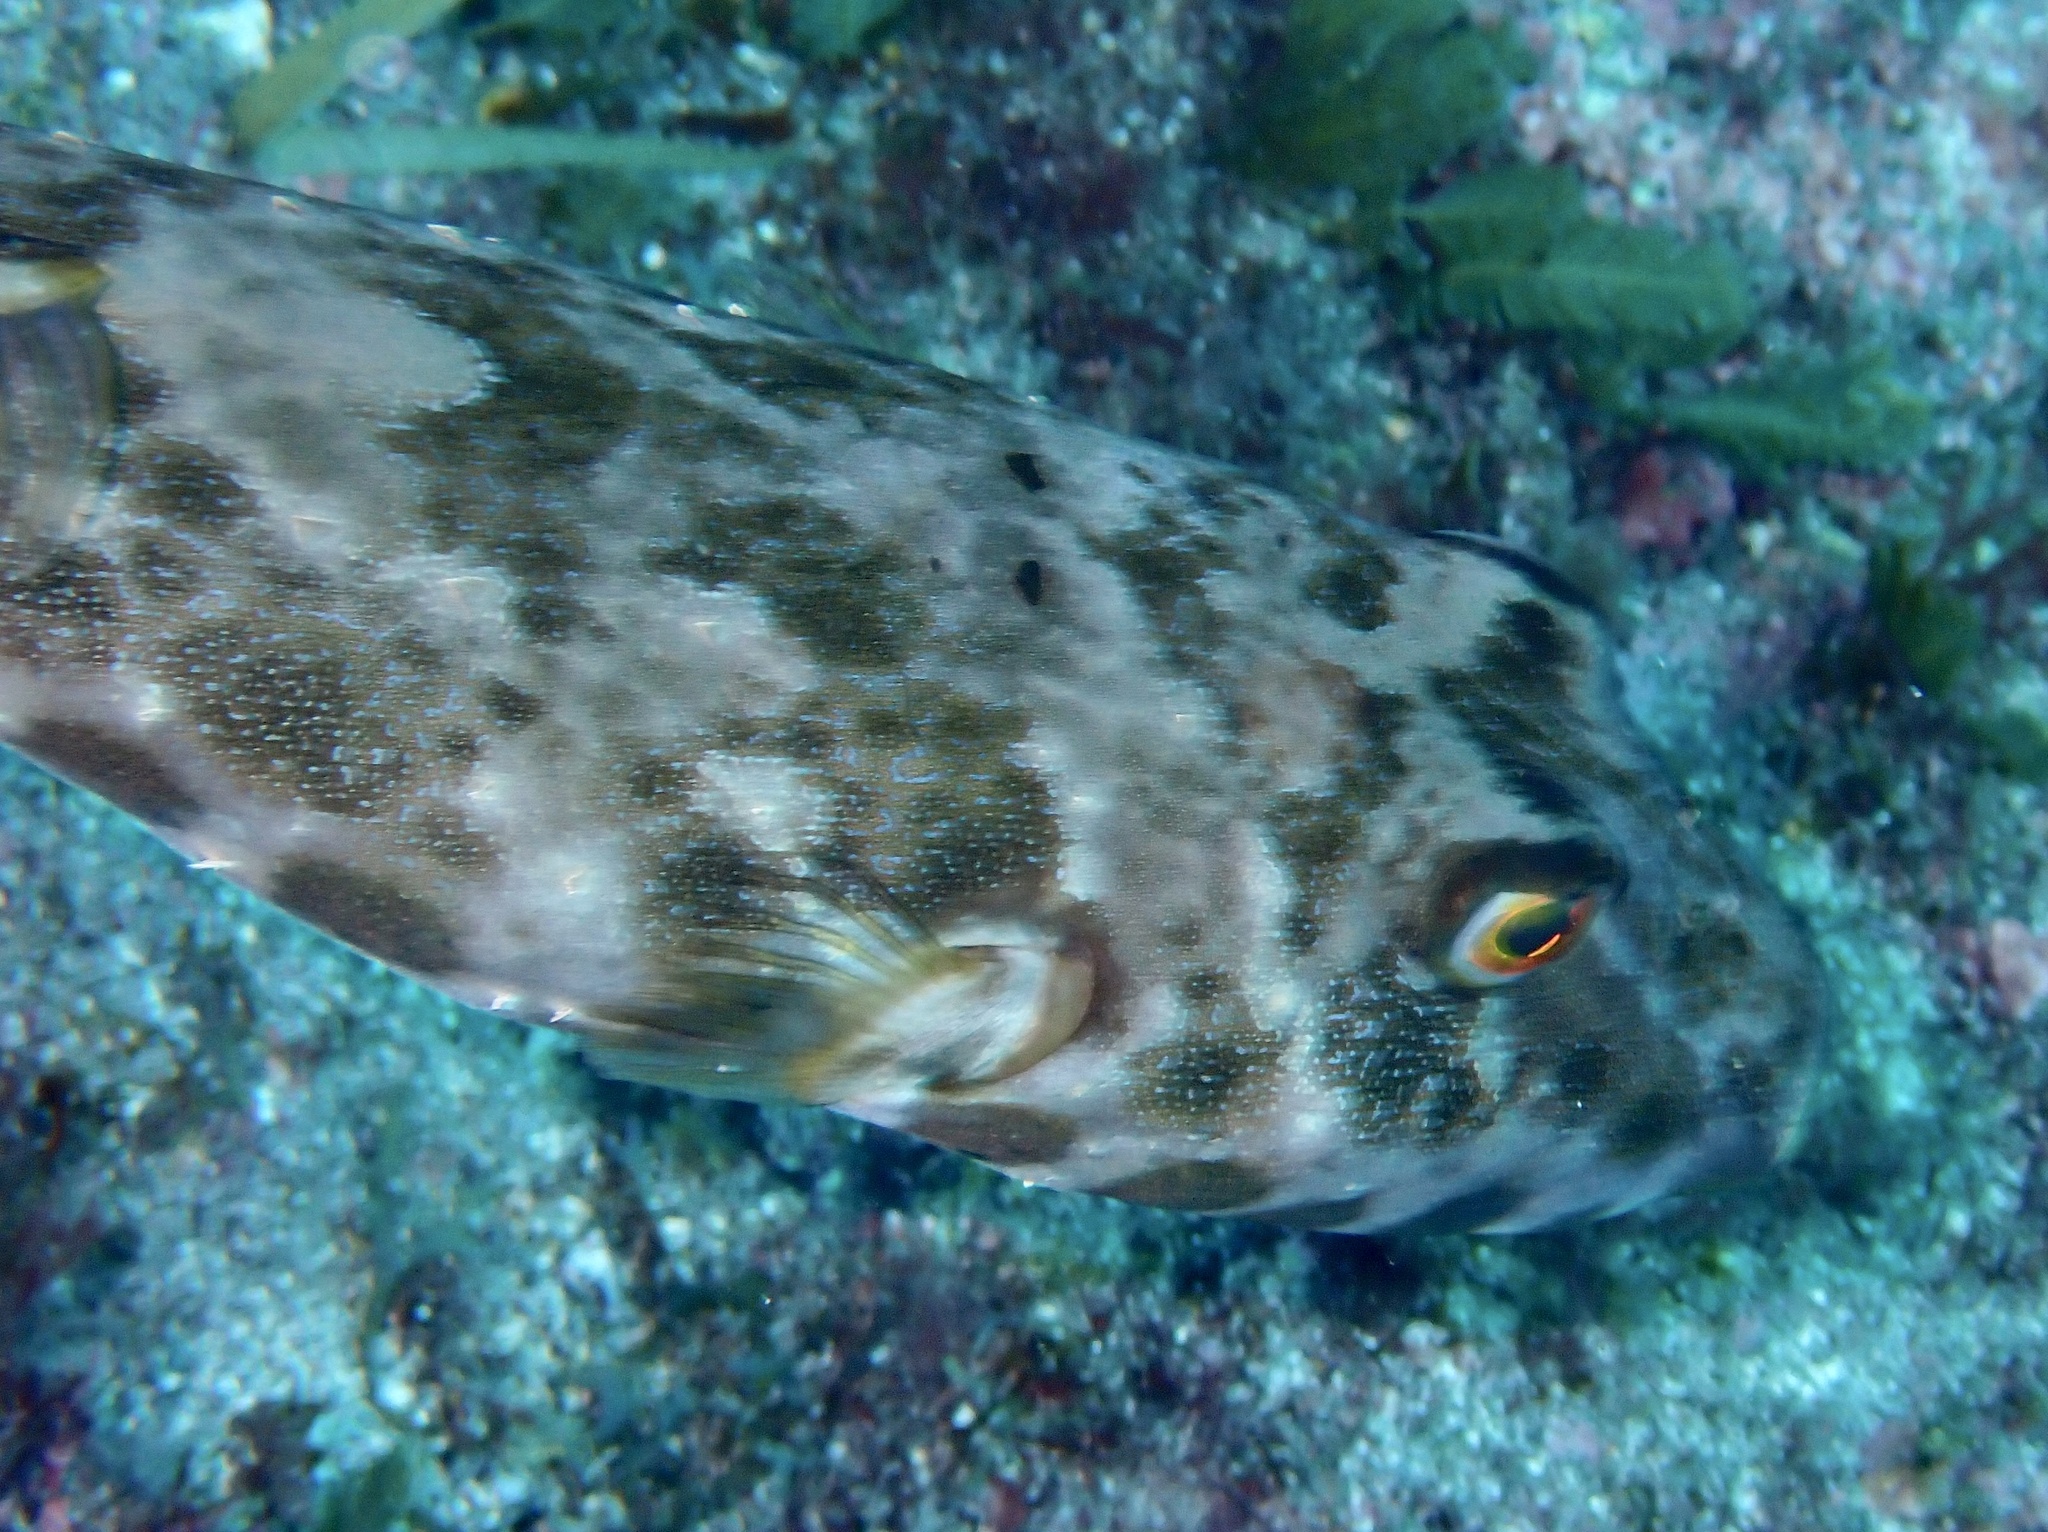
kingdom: Animalia
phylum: Chordata
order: Tetraodontiformes
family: Tetraodontidae
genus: Sphoeroides
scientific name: Sphoeroides marmoratus
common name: Guinean puffer
